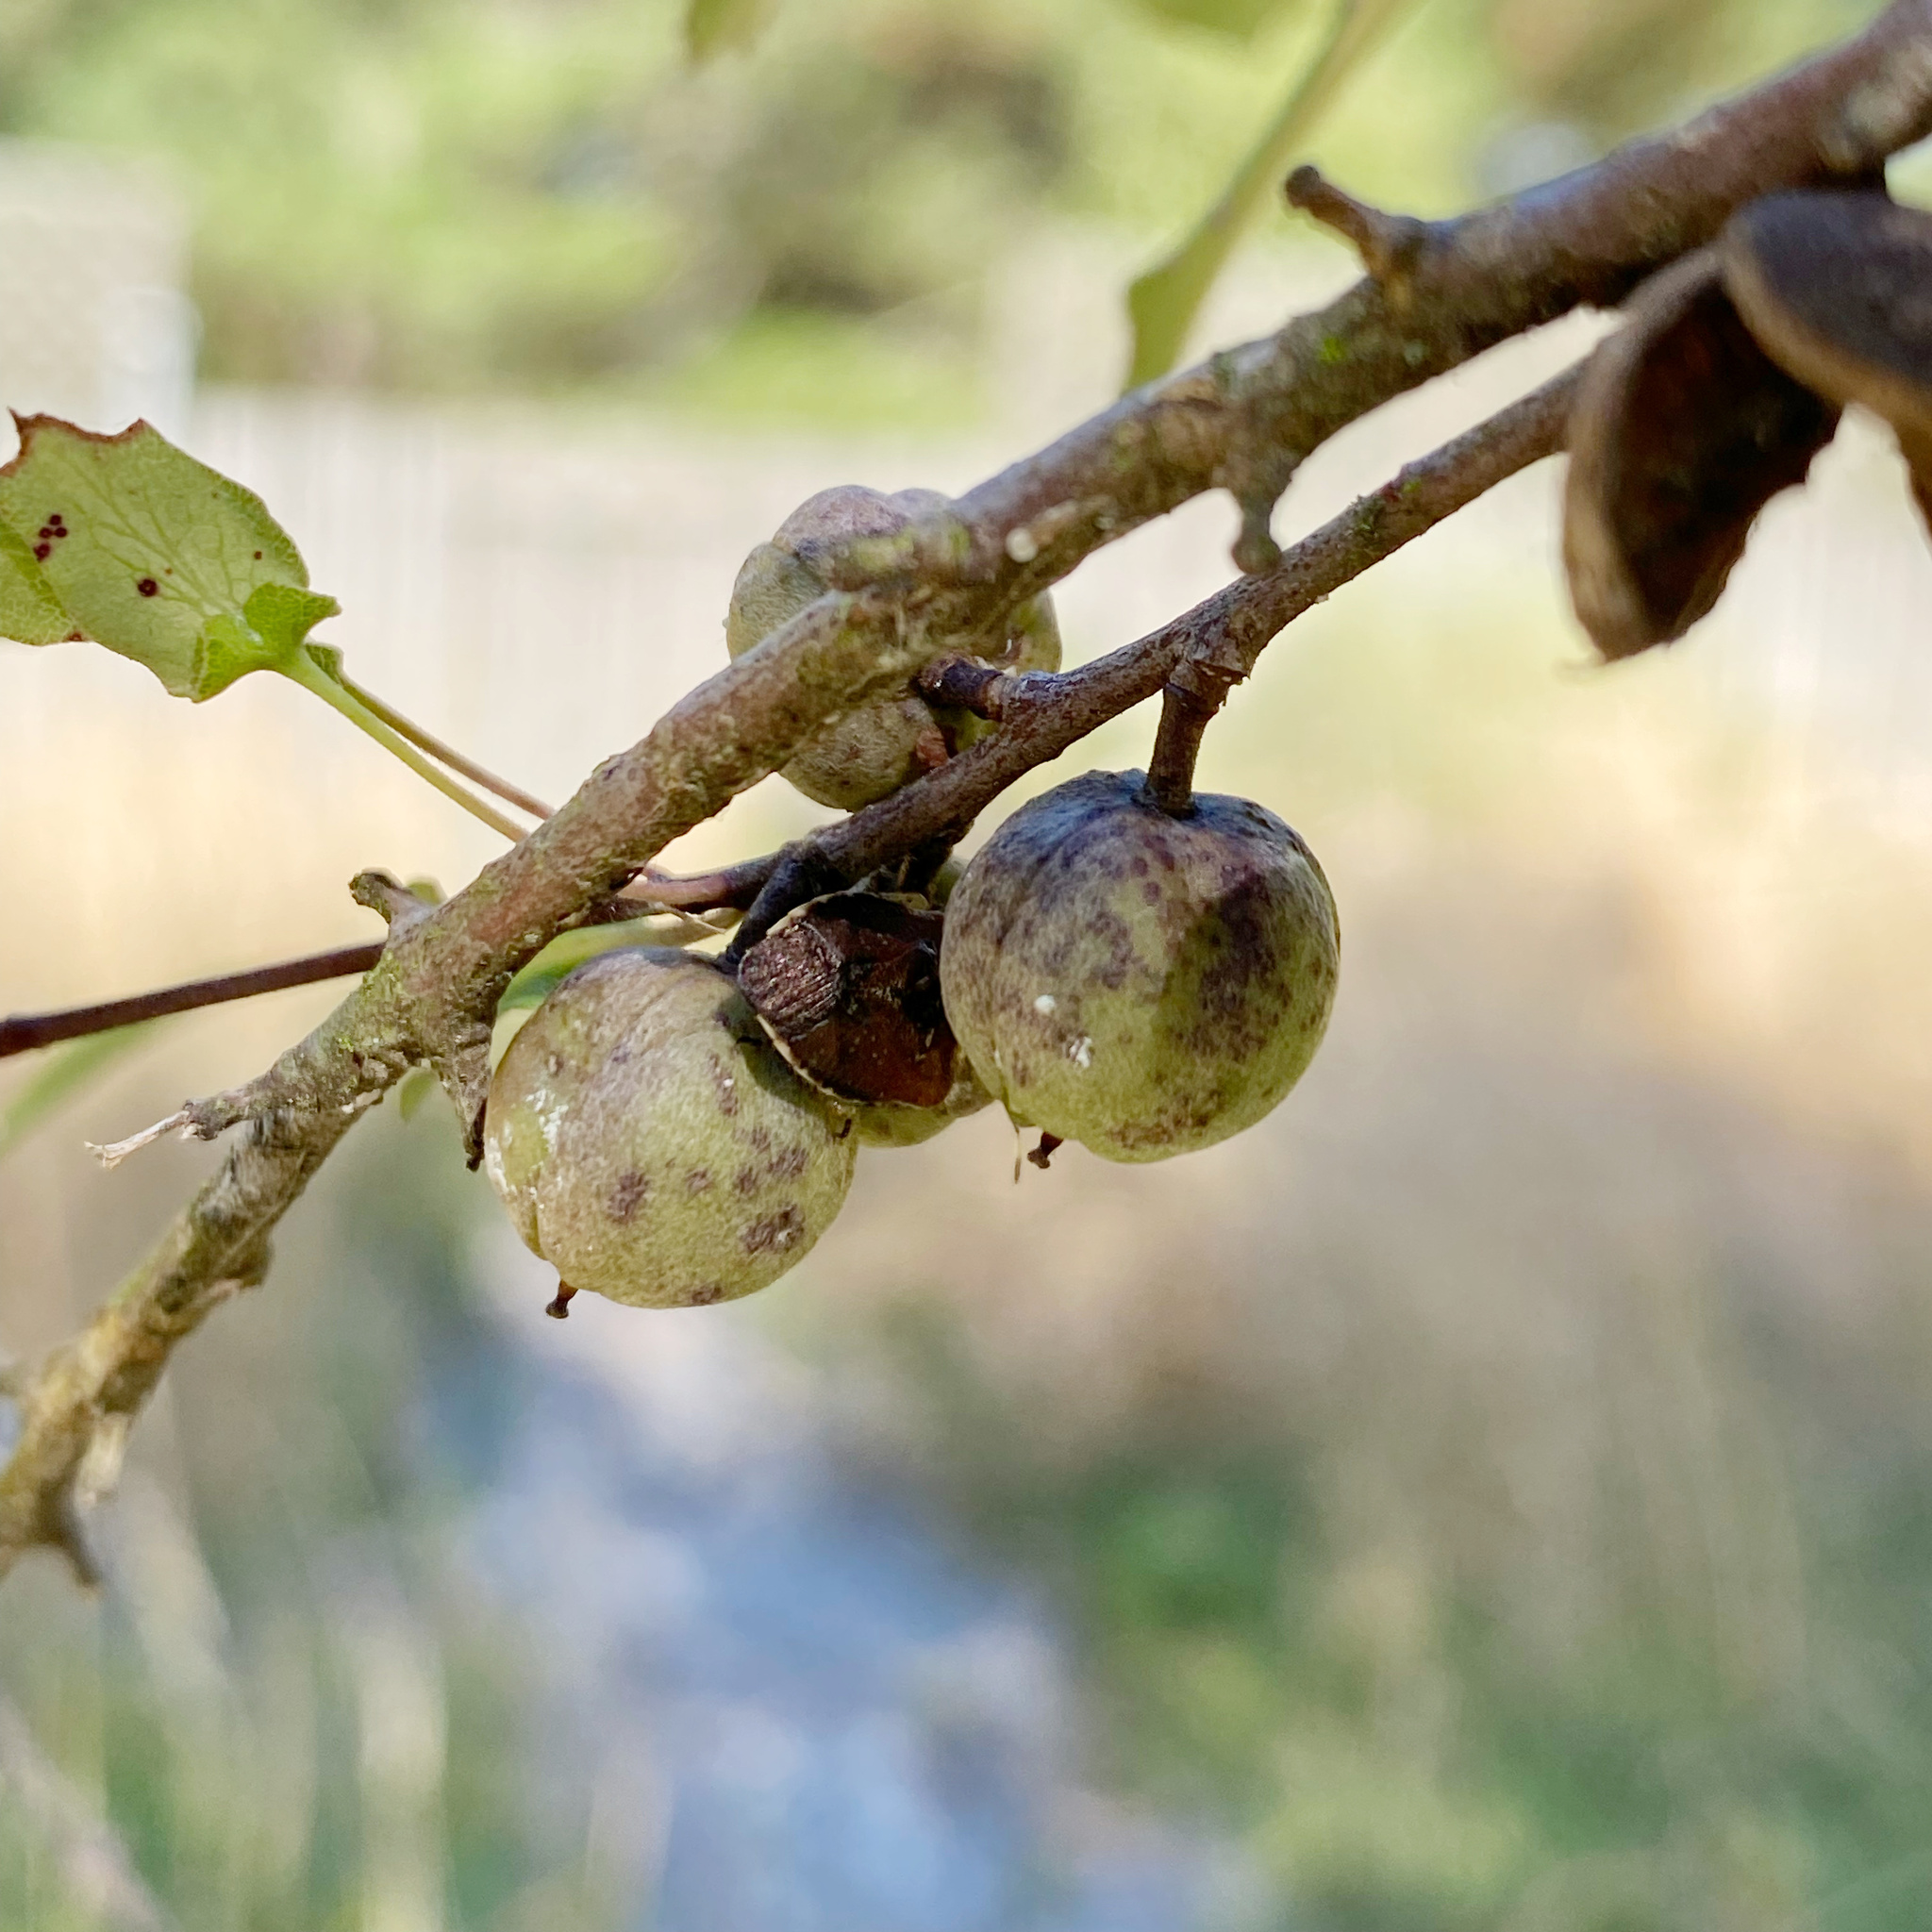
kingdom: Animalia
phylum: Arthropoda
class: Insecta
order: Hemiptera
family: Pentatomidae
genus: Monteithiella
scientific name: Monteithiella
